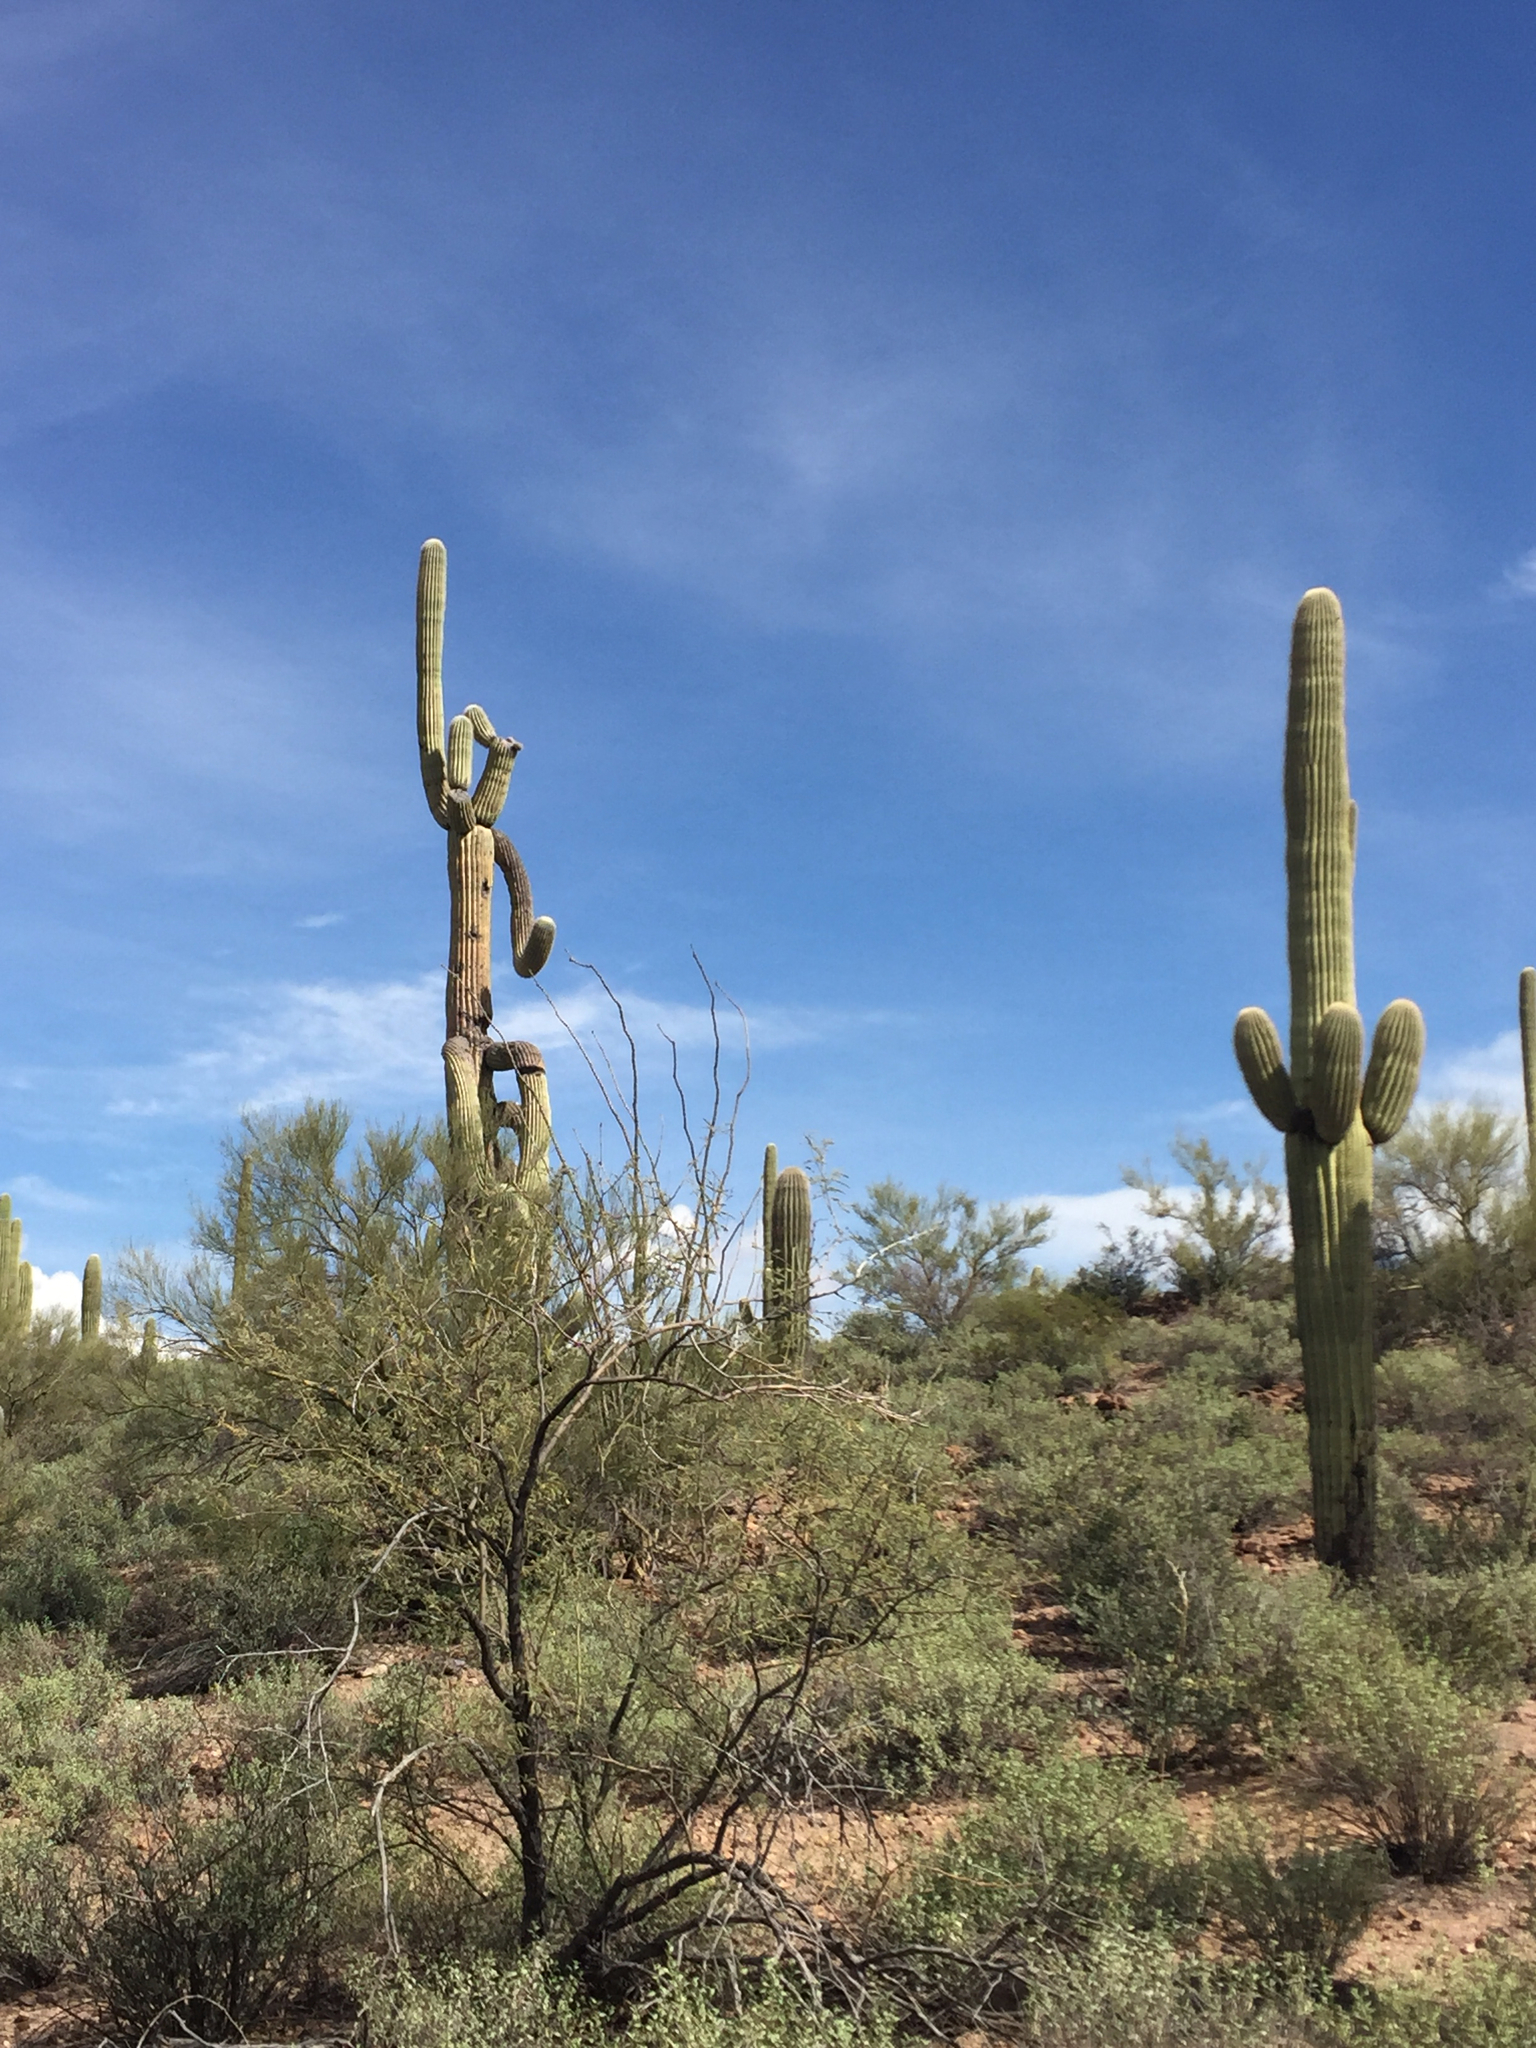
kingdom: Plantae
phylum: Tracheophyta
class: Magnoliopsida
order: Caryophyllales
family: Cactaceae
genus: Carnegiea
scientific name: Carnegiea gigantea
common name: Saguaro
